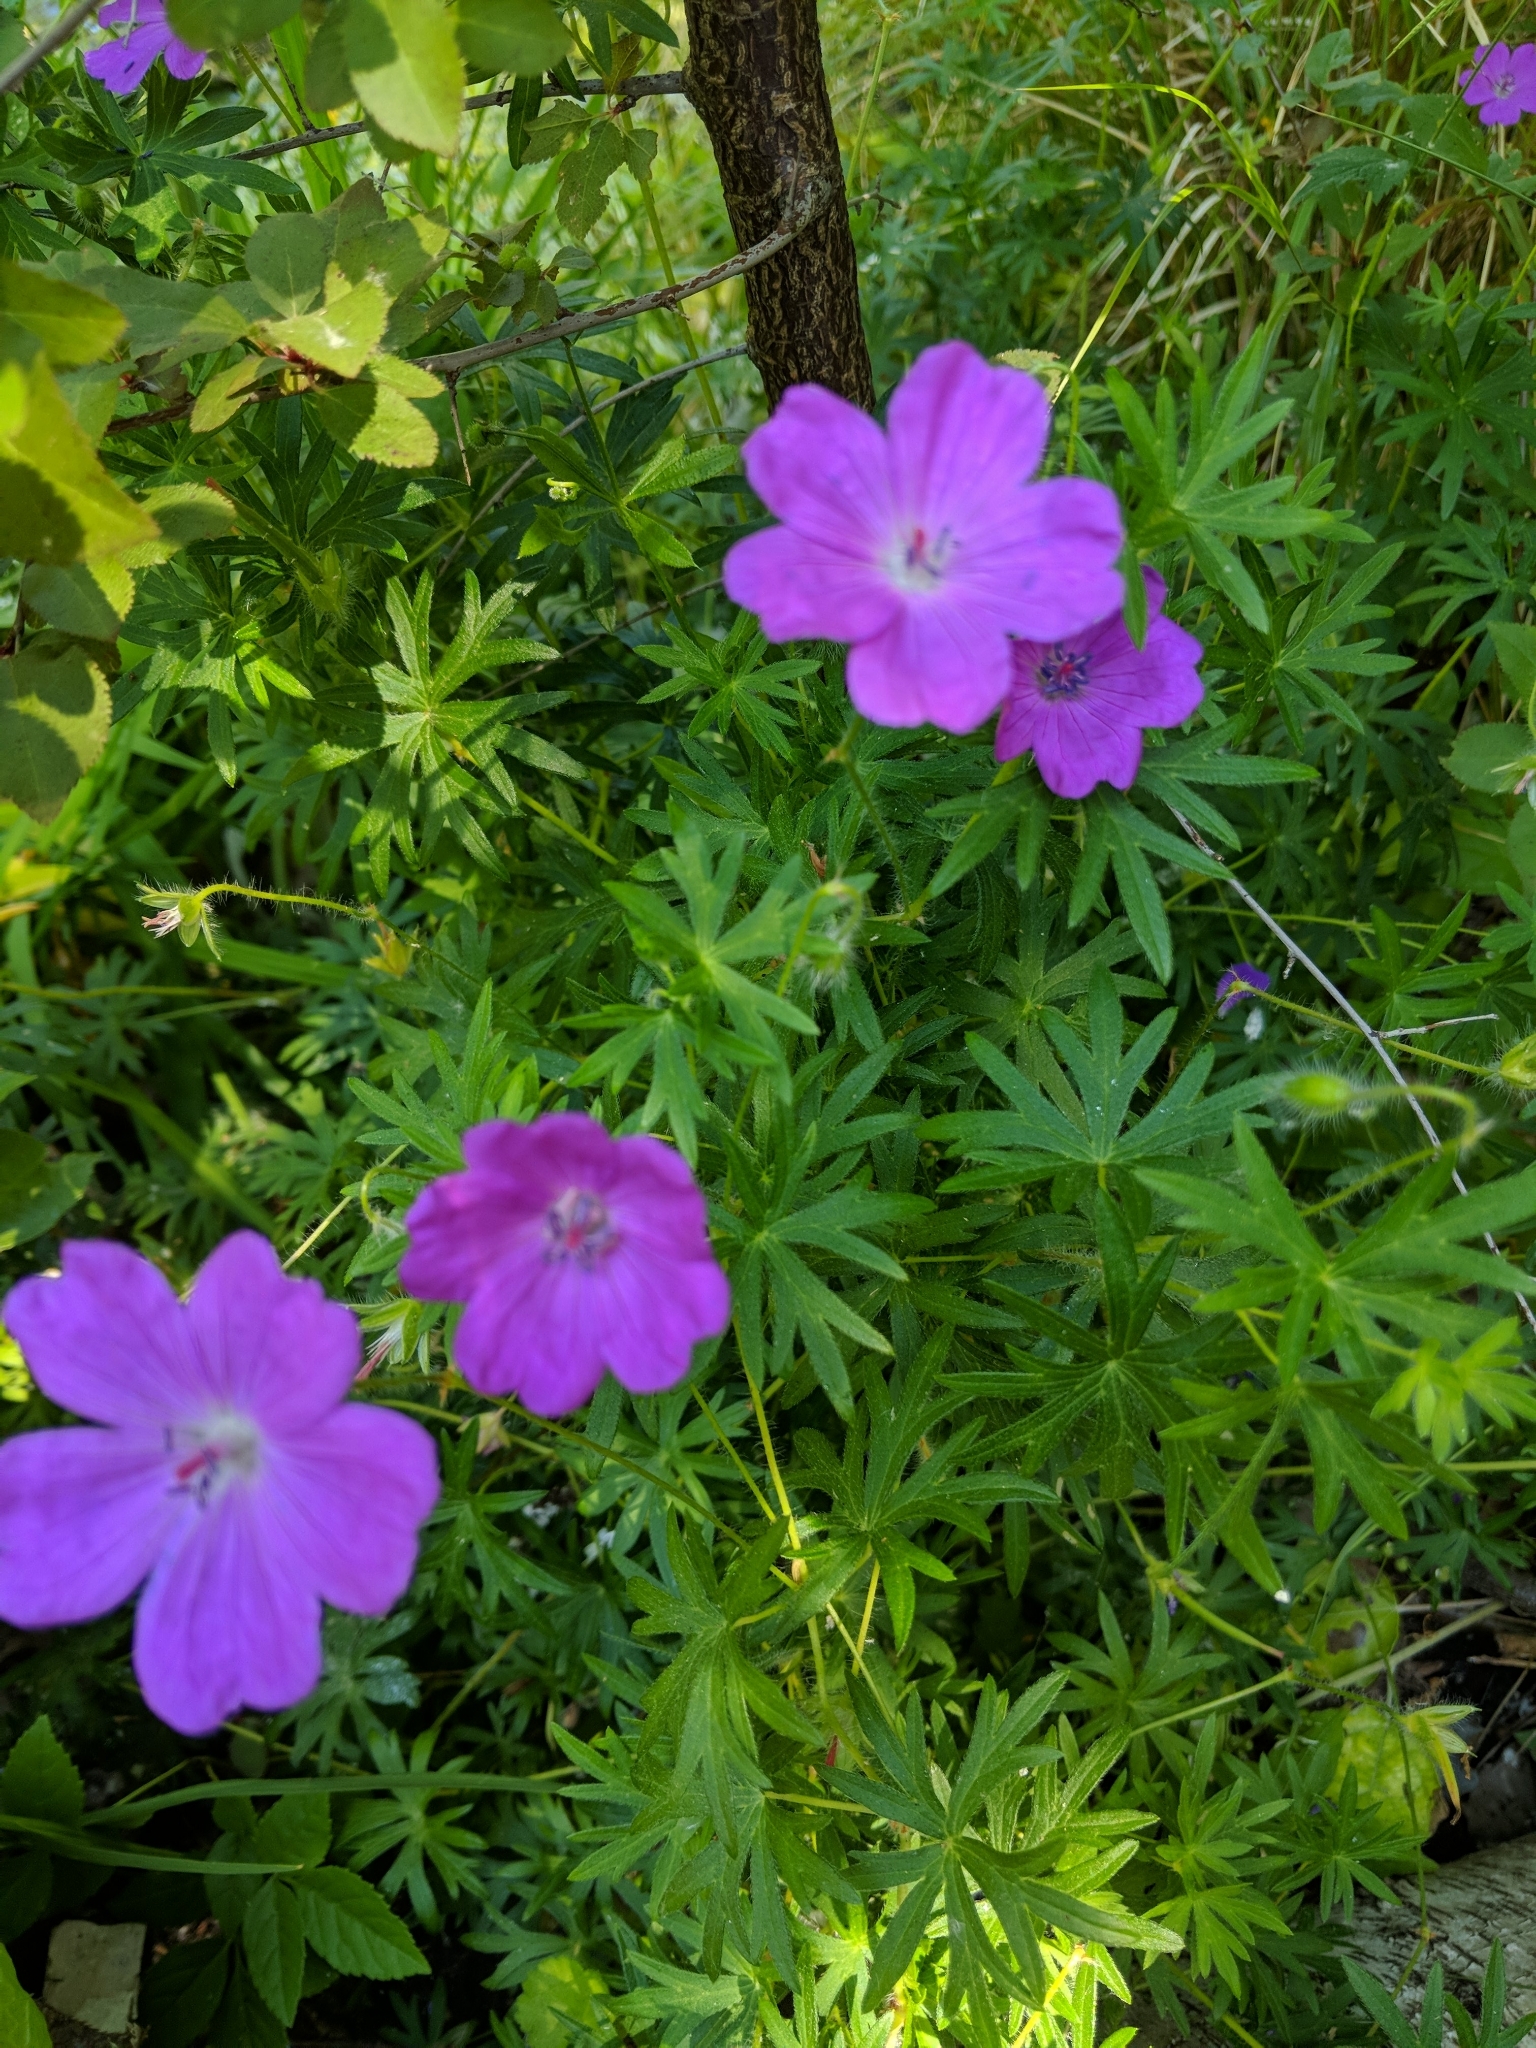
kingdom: Plantae
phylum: Tracheophyta
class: Magnoliopsida
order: Geraniales
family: Geraniaceae
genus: Geranium
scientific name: Geranium sanguineum
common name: Bloody crane's-bill
